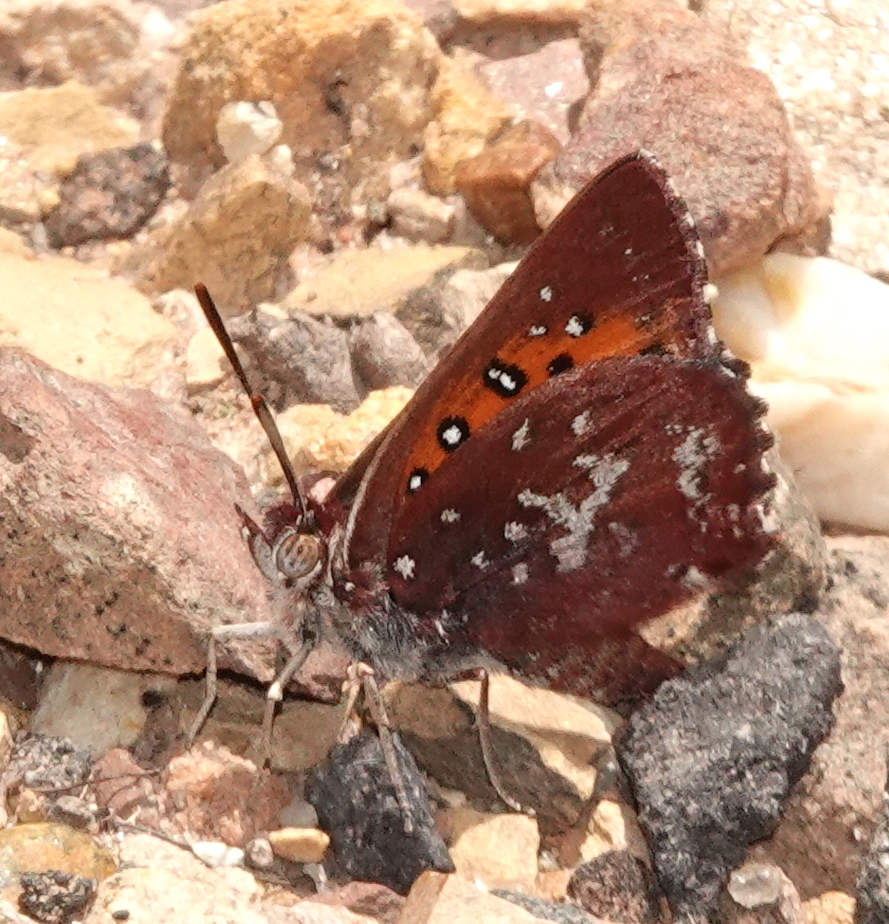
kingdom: Animalia
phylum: Arthropoda
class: Insecta
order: Lepidoptera
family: Lycaenidae
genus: Aloeides
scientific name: Aloeides thyra
